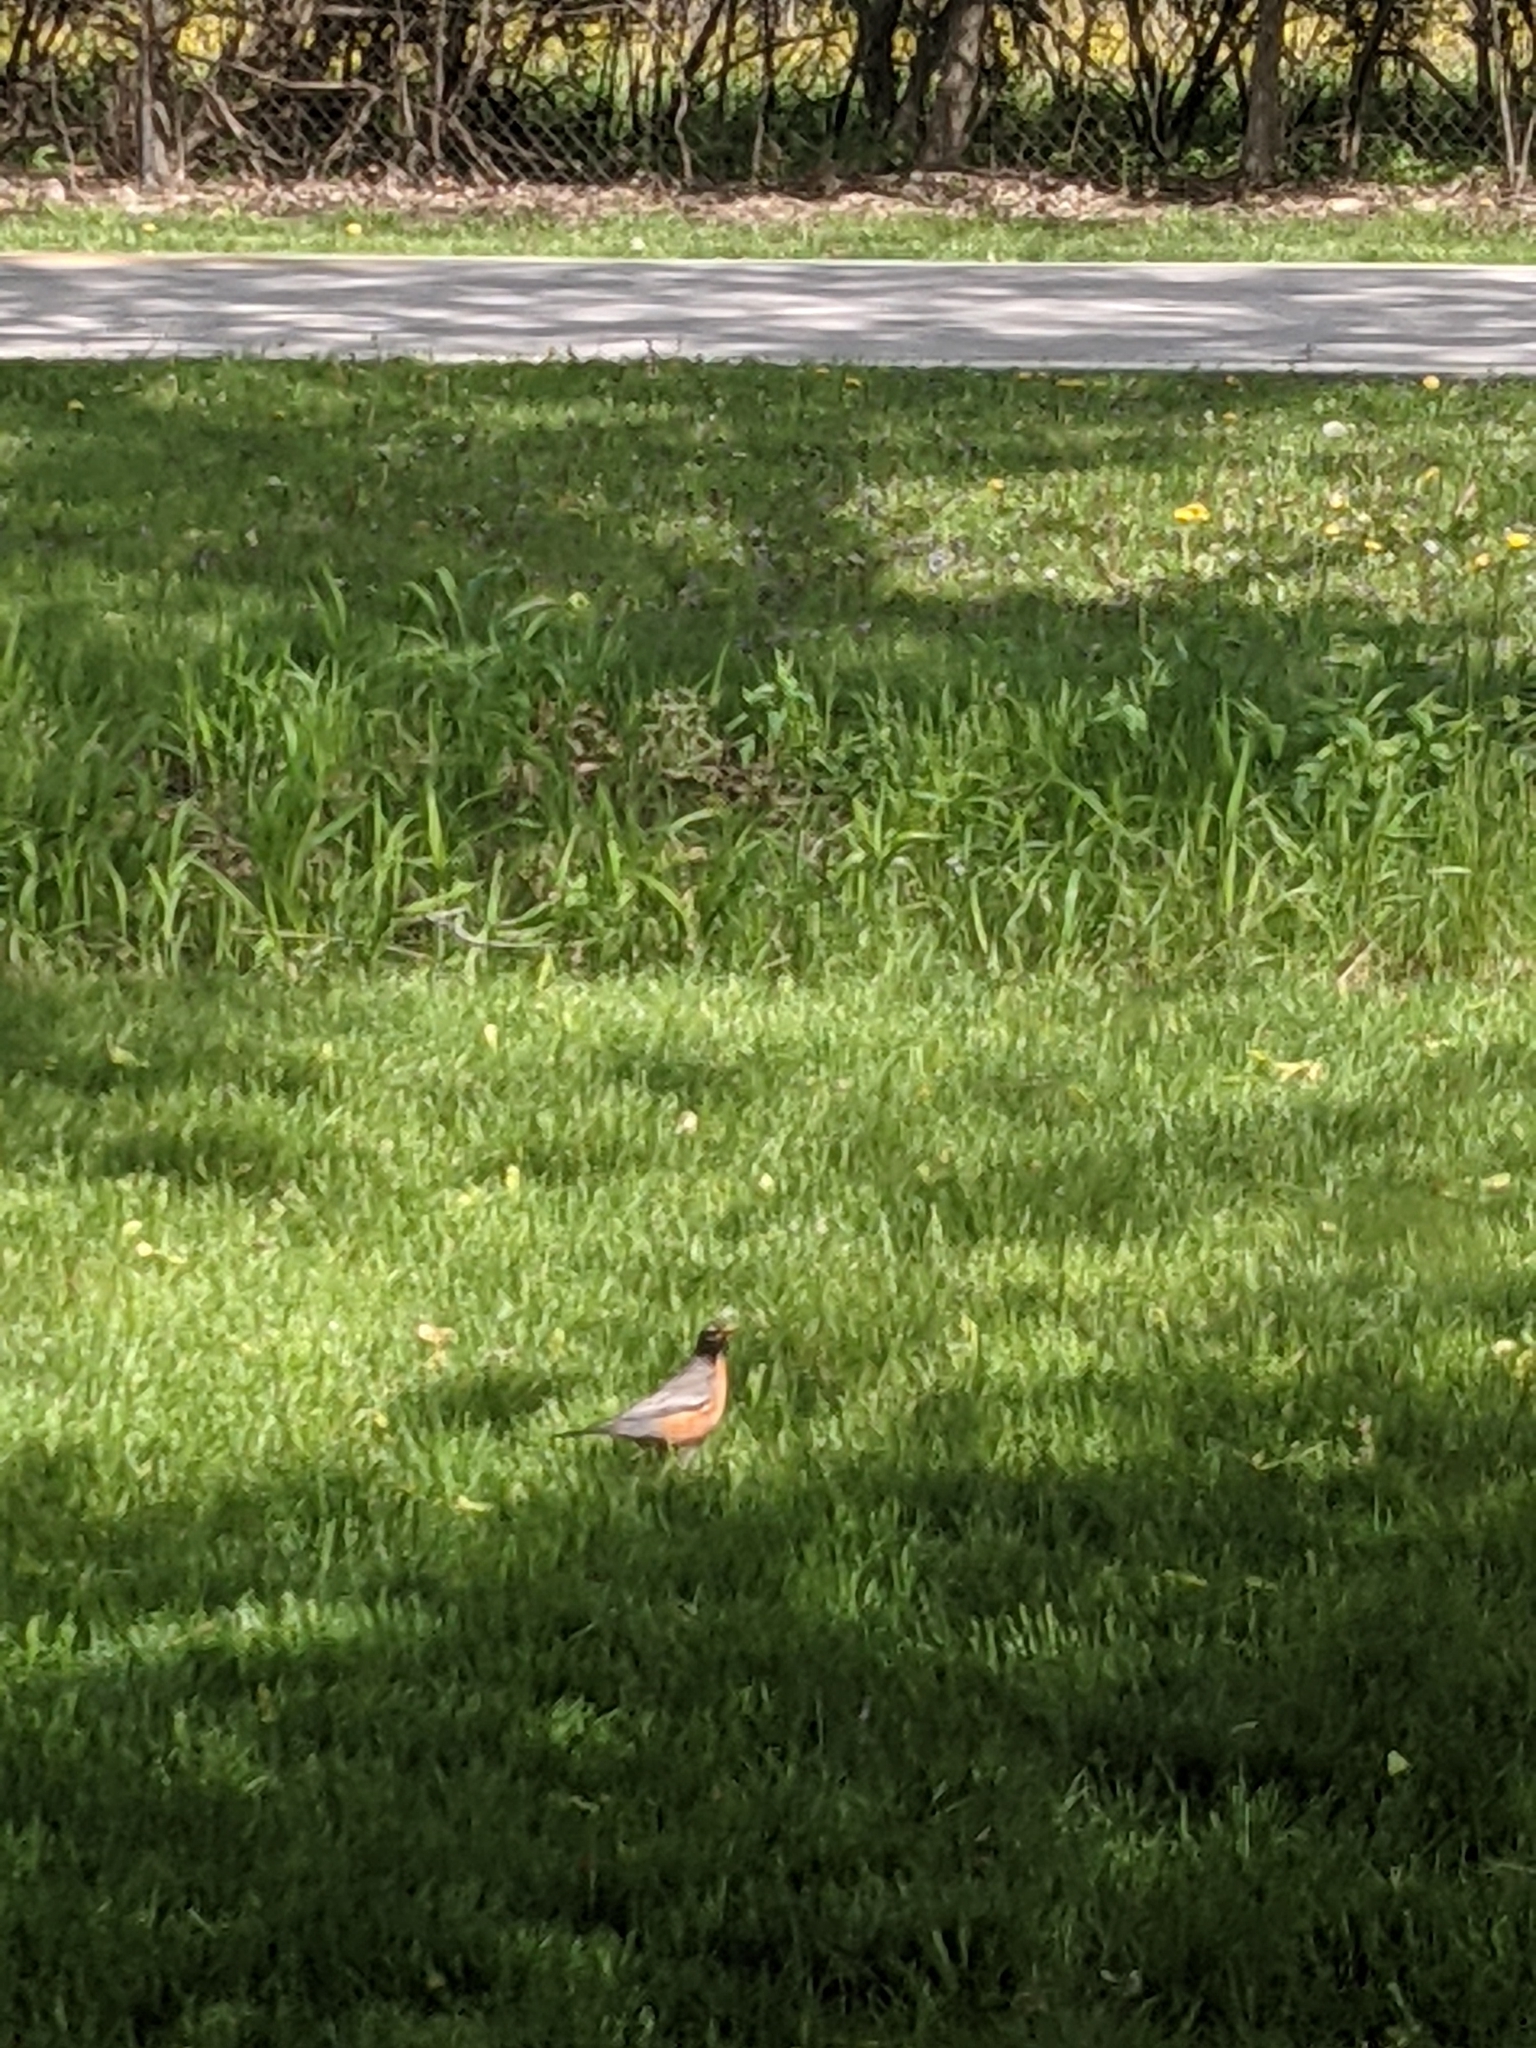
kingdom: Animalia
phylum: Chordata
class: Aves
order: Passeriformes
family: Turdidae
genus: Turdus
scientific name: Turdus migratorius
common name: American robin
